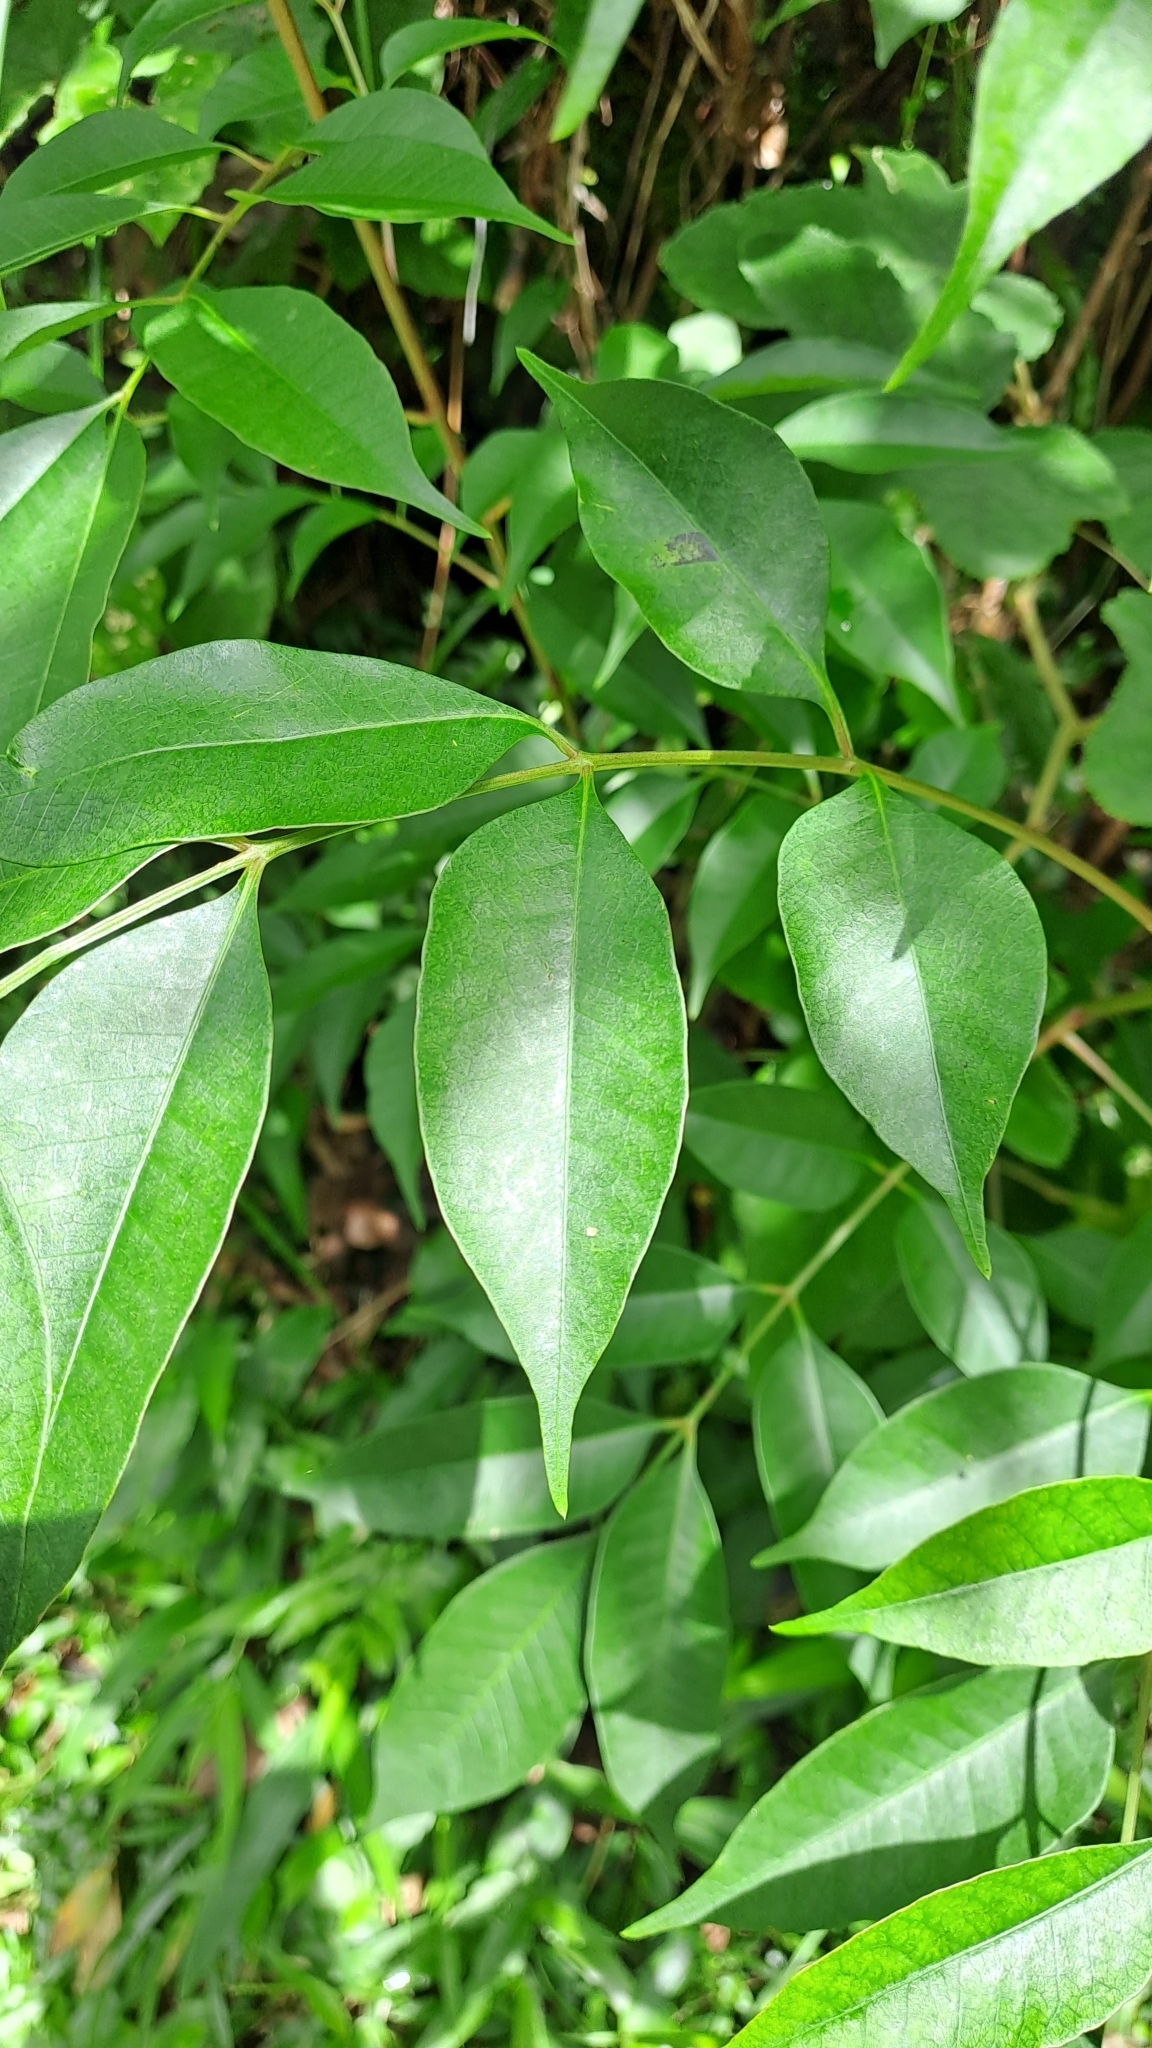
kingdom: Plantae
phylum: Tracheophyta
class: Magnoliopsida
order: Sapindales
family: Anacardiaceae
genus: Toxicodendron
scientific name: Toxicodendron succedaneum
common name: Wax tree
